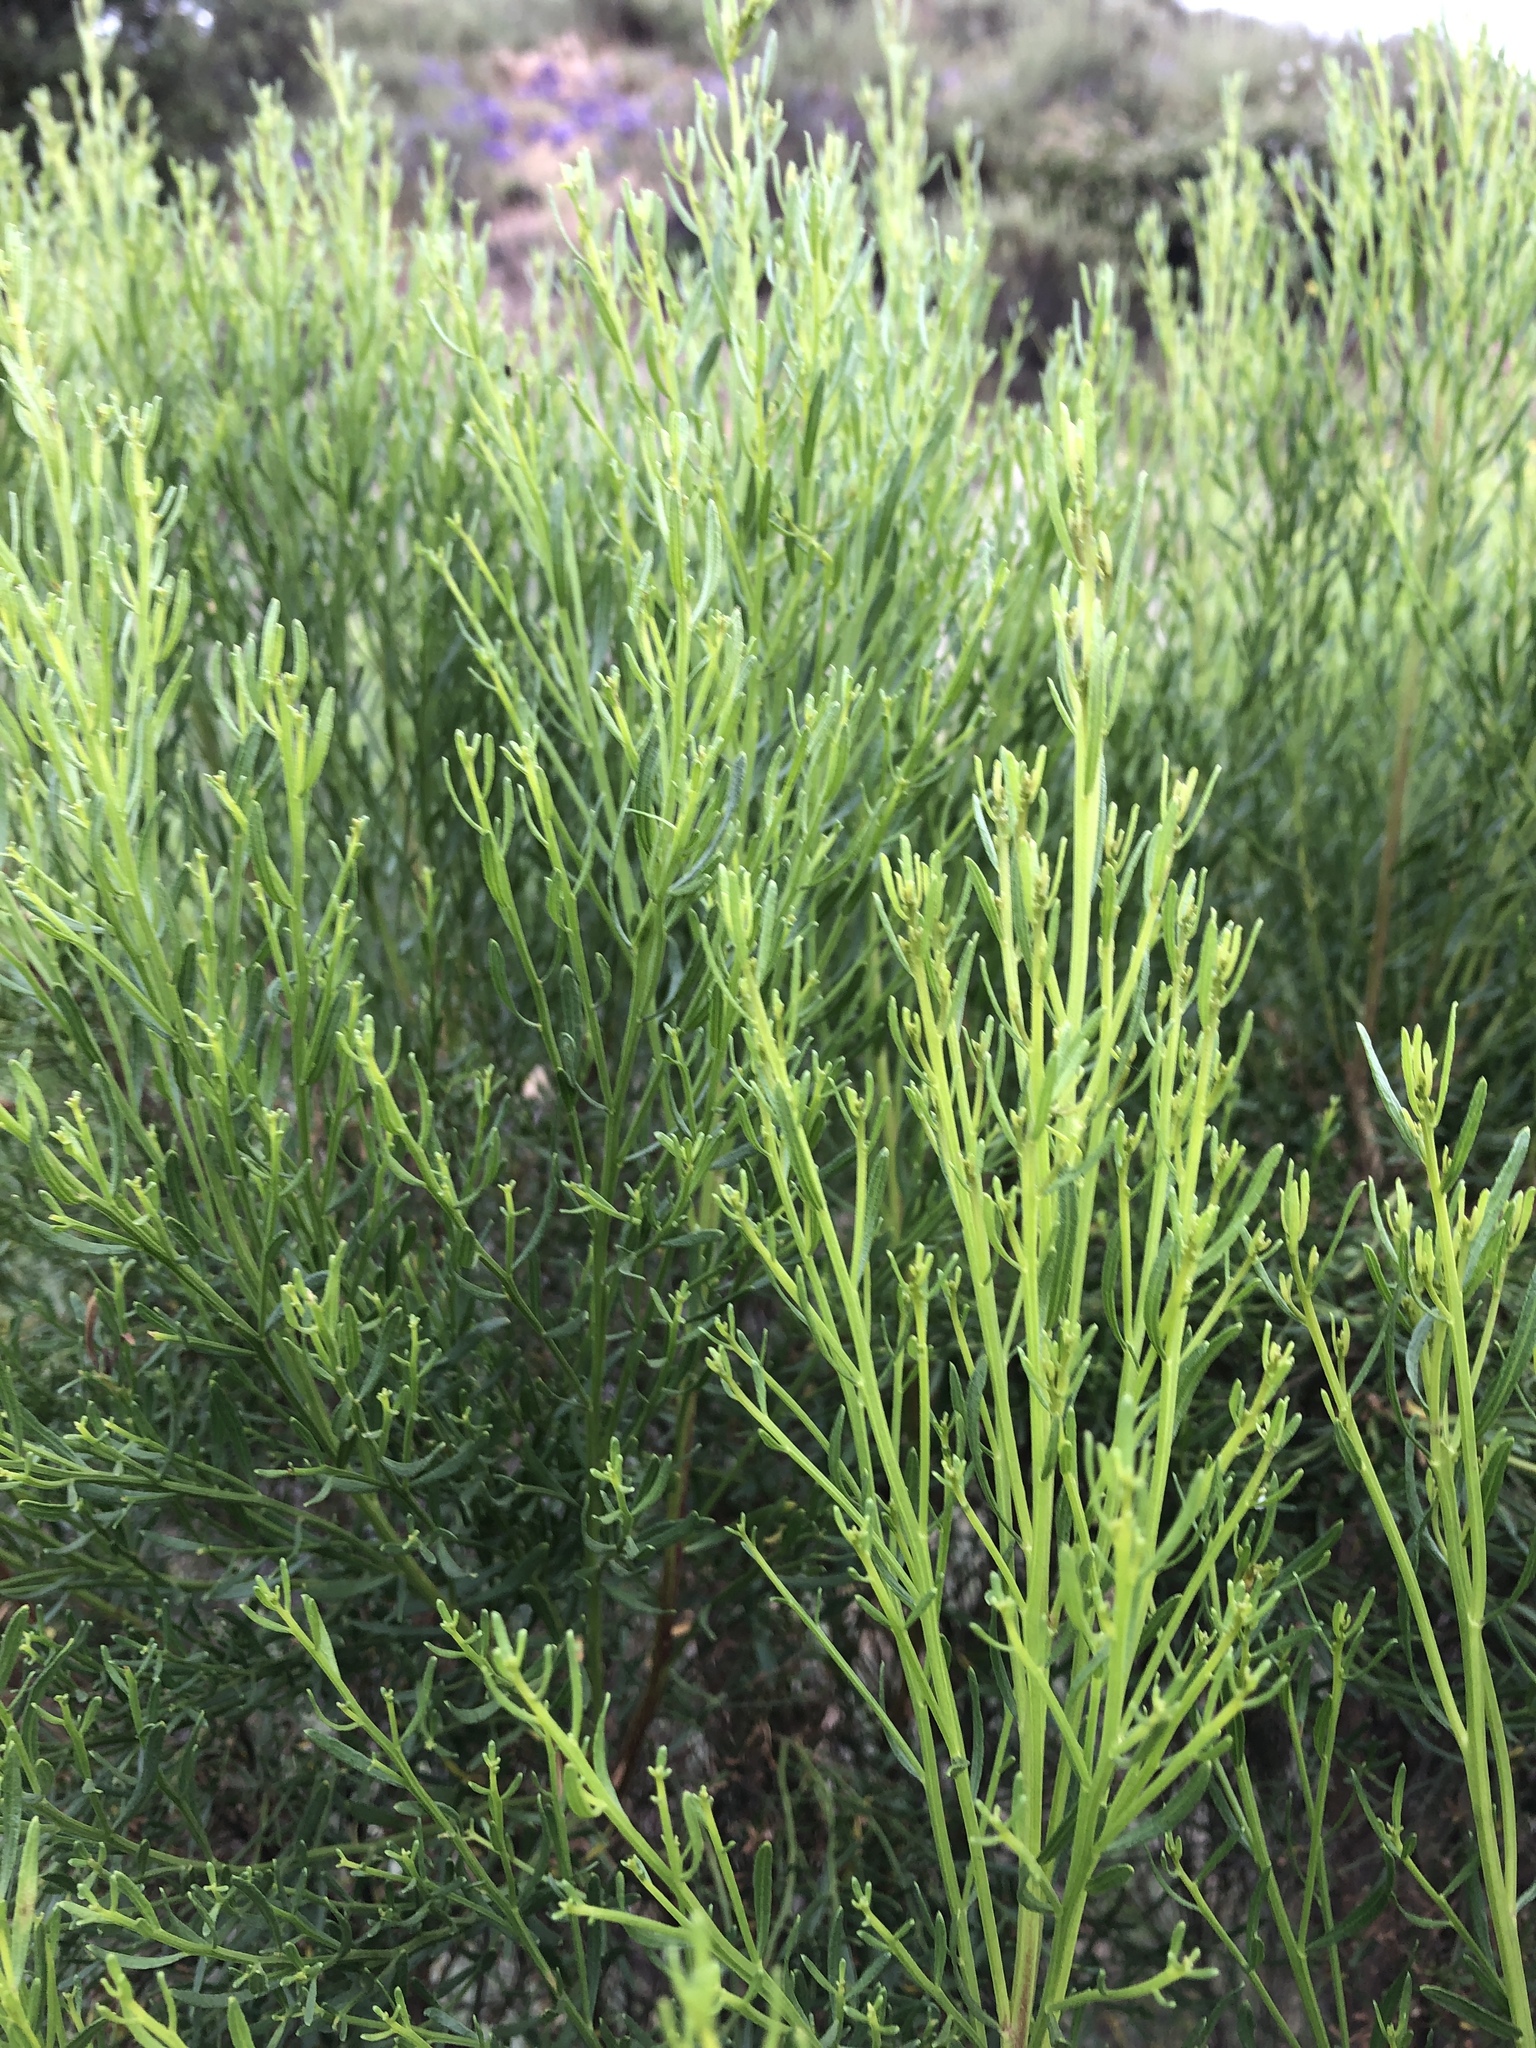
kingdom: Plantae
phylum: Tracheophyta
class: Magnoliopsida
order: Asterales
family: Asteraceae
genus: Baccharis
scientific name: Baccharis sarothroides
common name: Desert-broom
